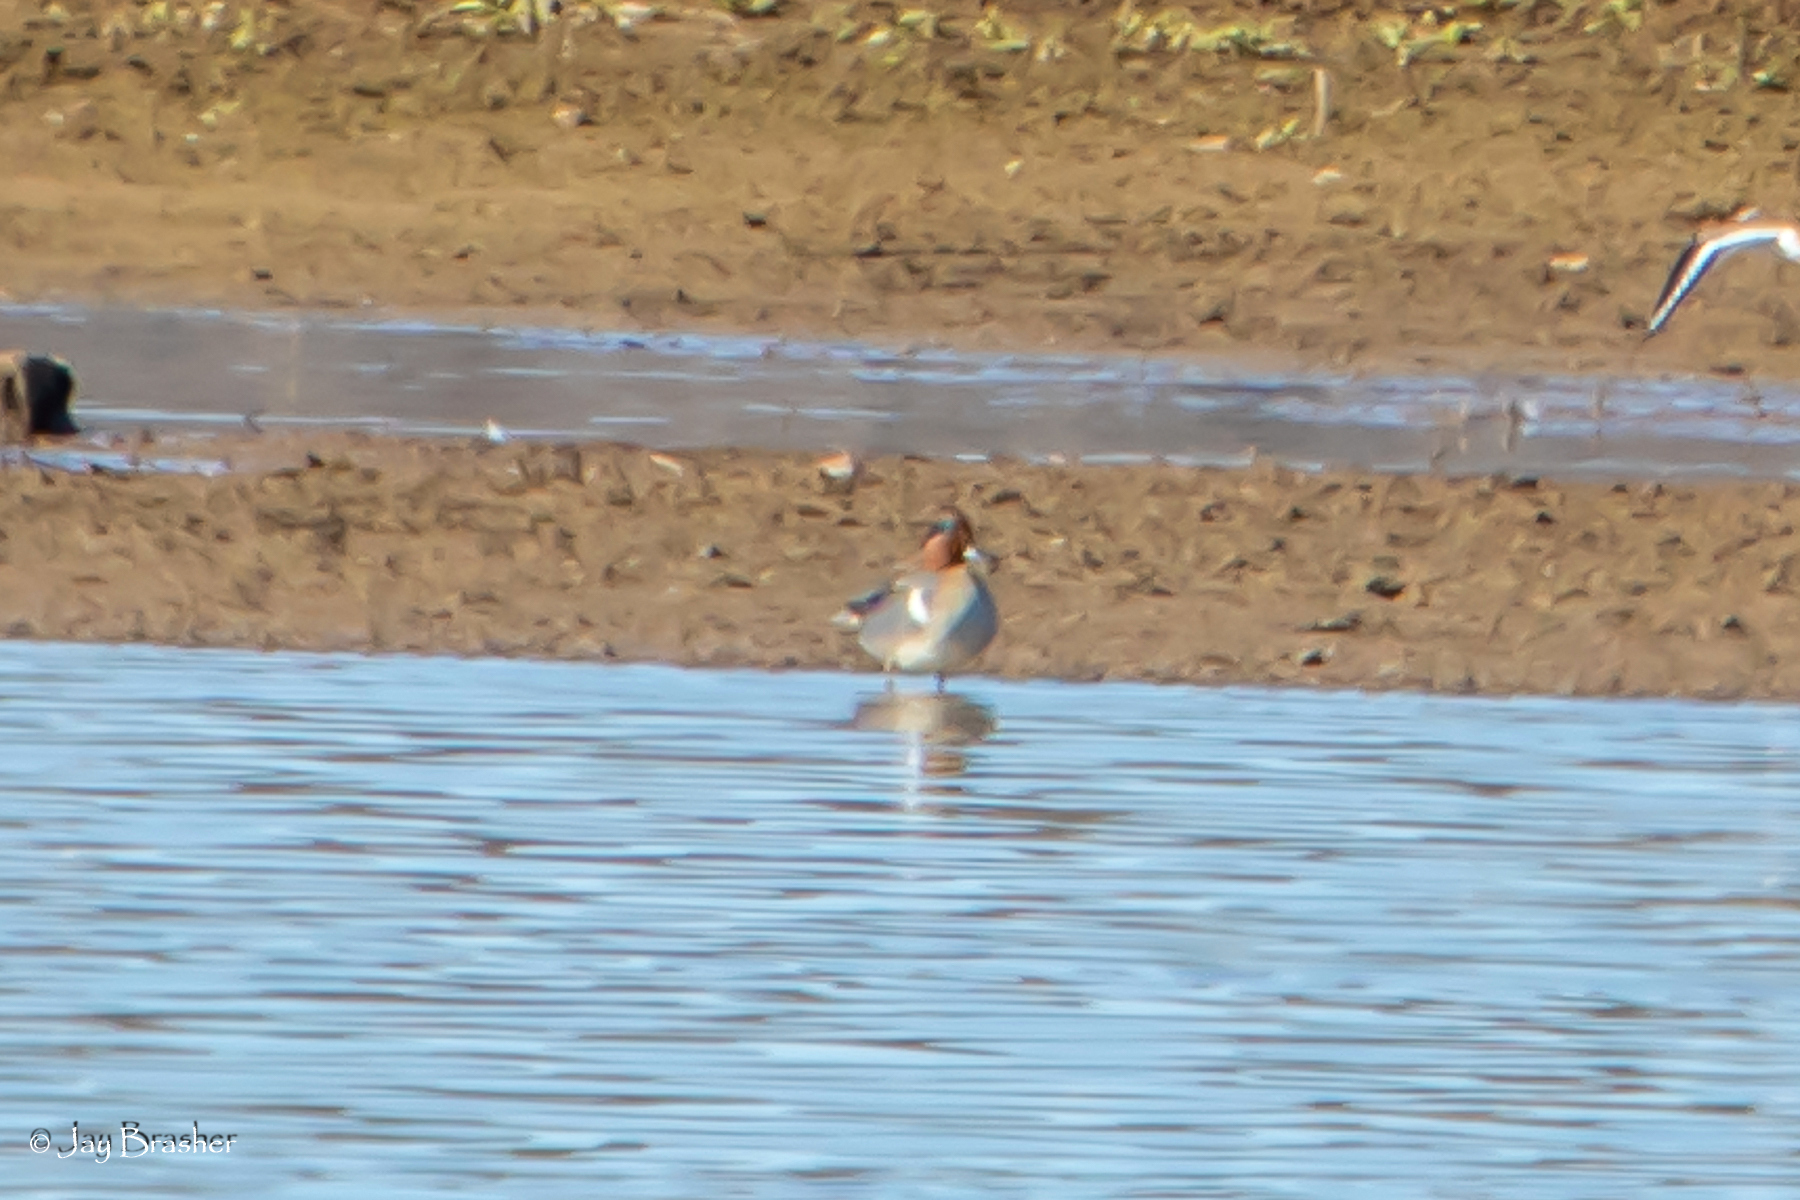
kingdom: Animalia
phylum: Chordata
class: Aves
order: Anseriformes
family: Anatidae
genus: Anas
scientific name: Anas crecca
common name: Eurasian teal
